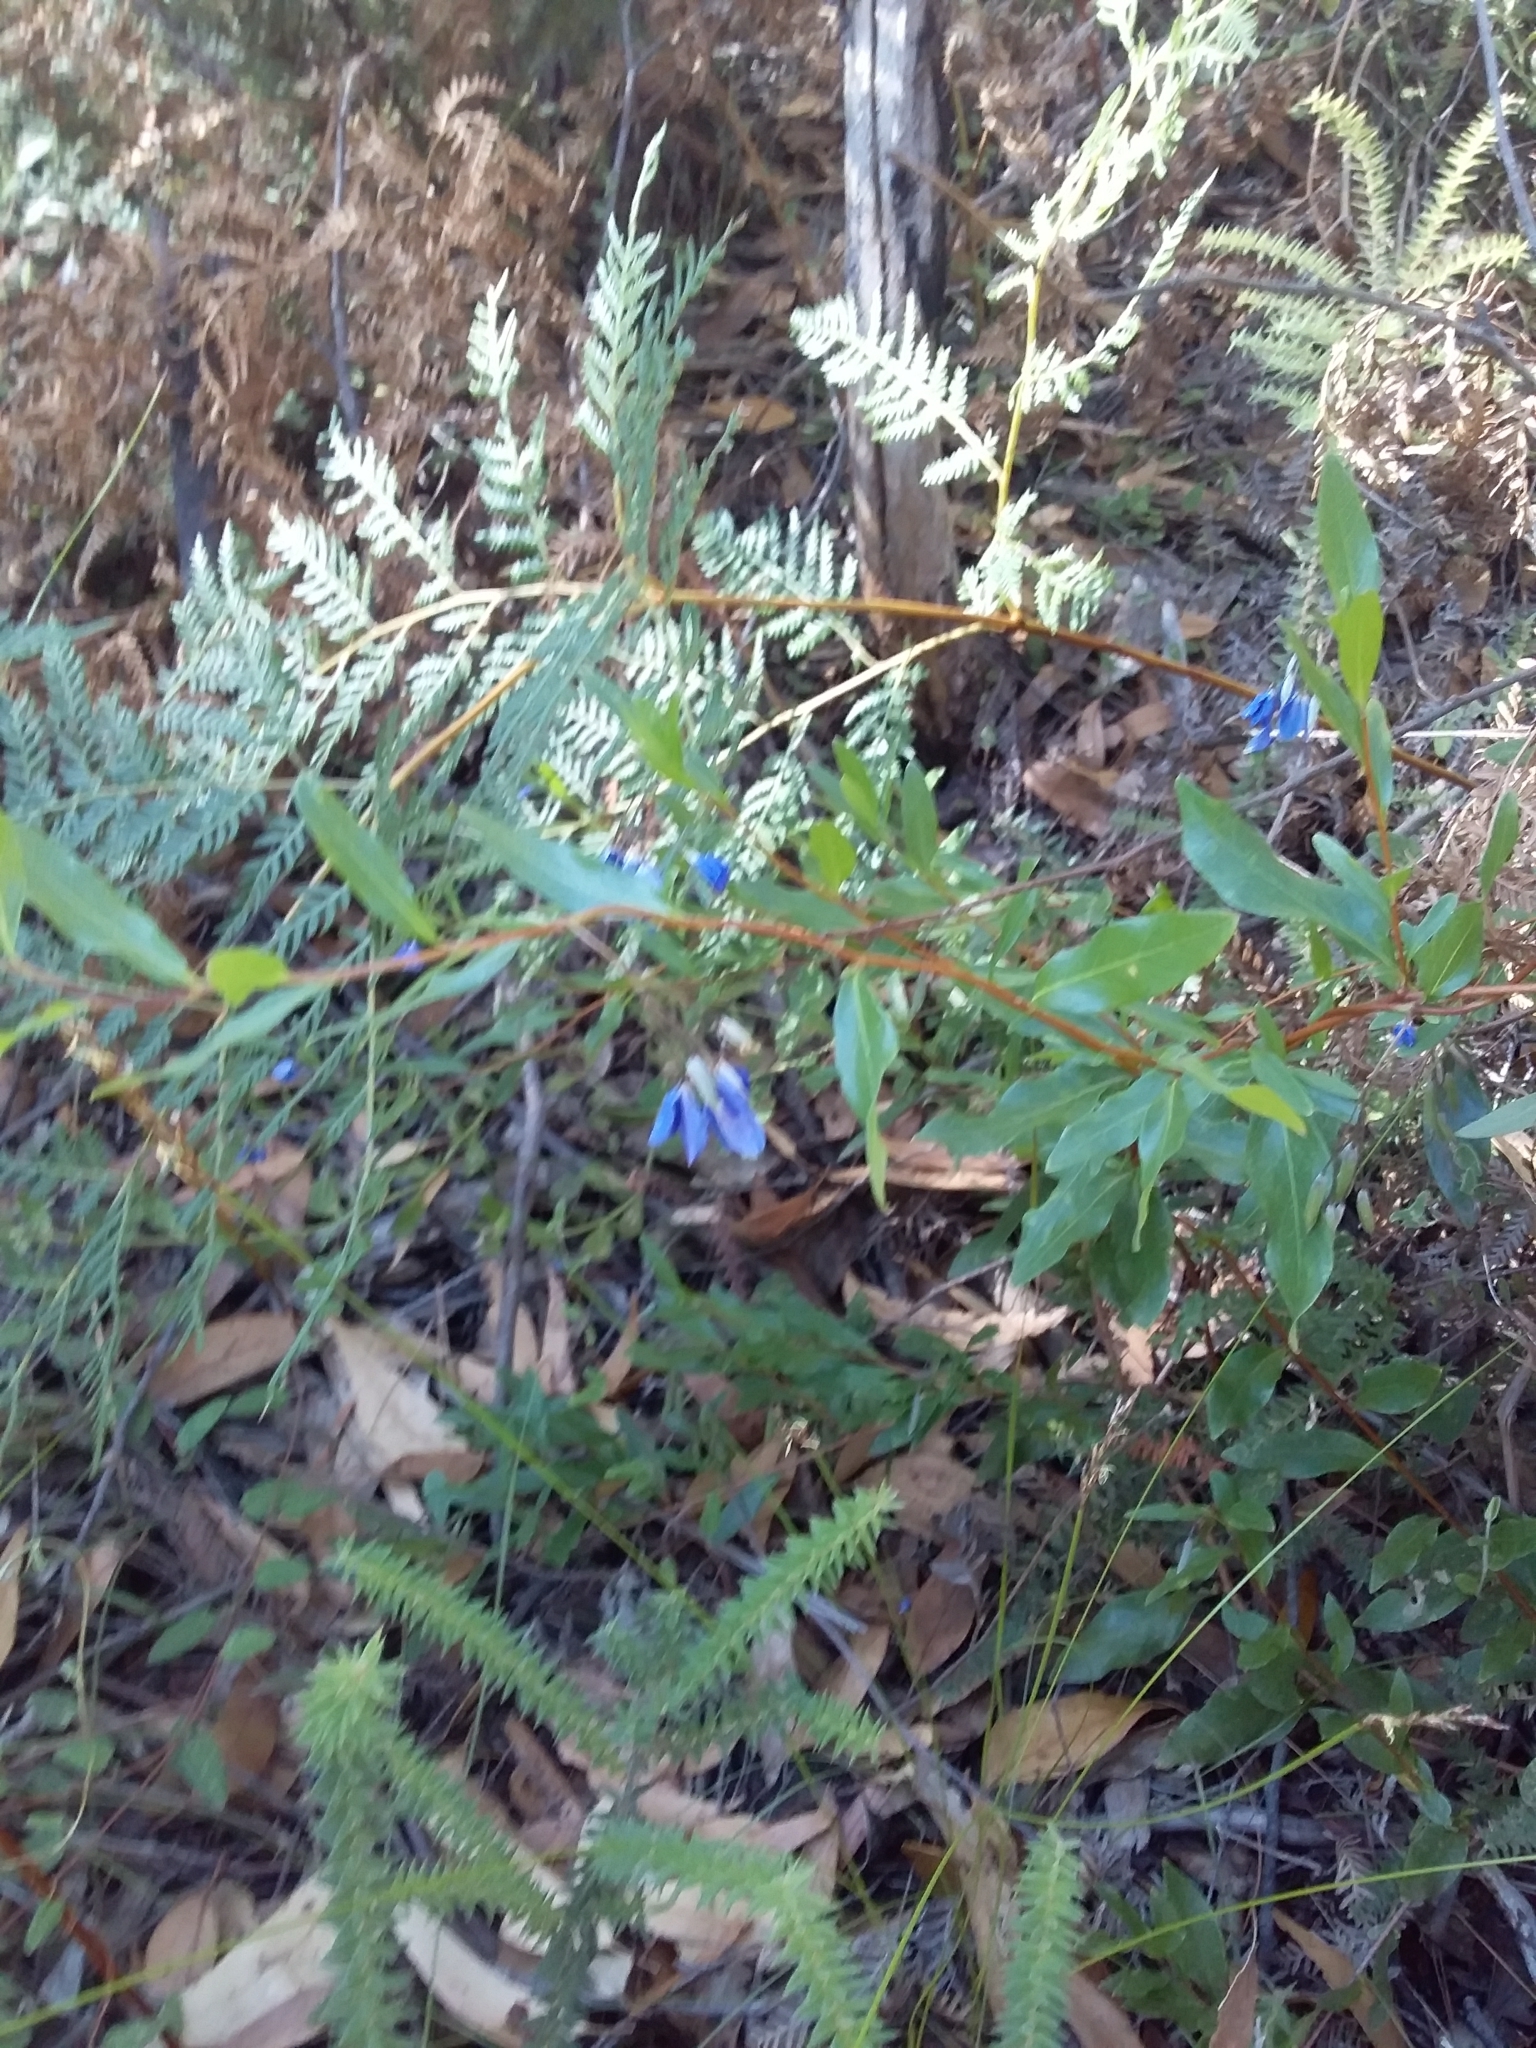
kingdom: Plantae
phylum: Tracheophyta
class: Magnoliopsida
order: Apiales
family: Pittosporaceae
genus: Billardiera
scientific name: Billardiera fusiformis
